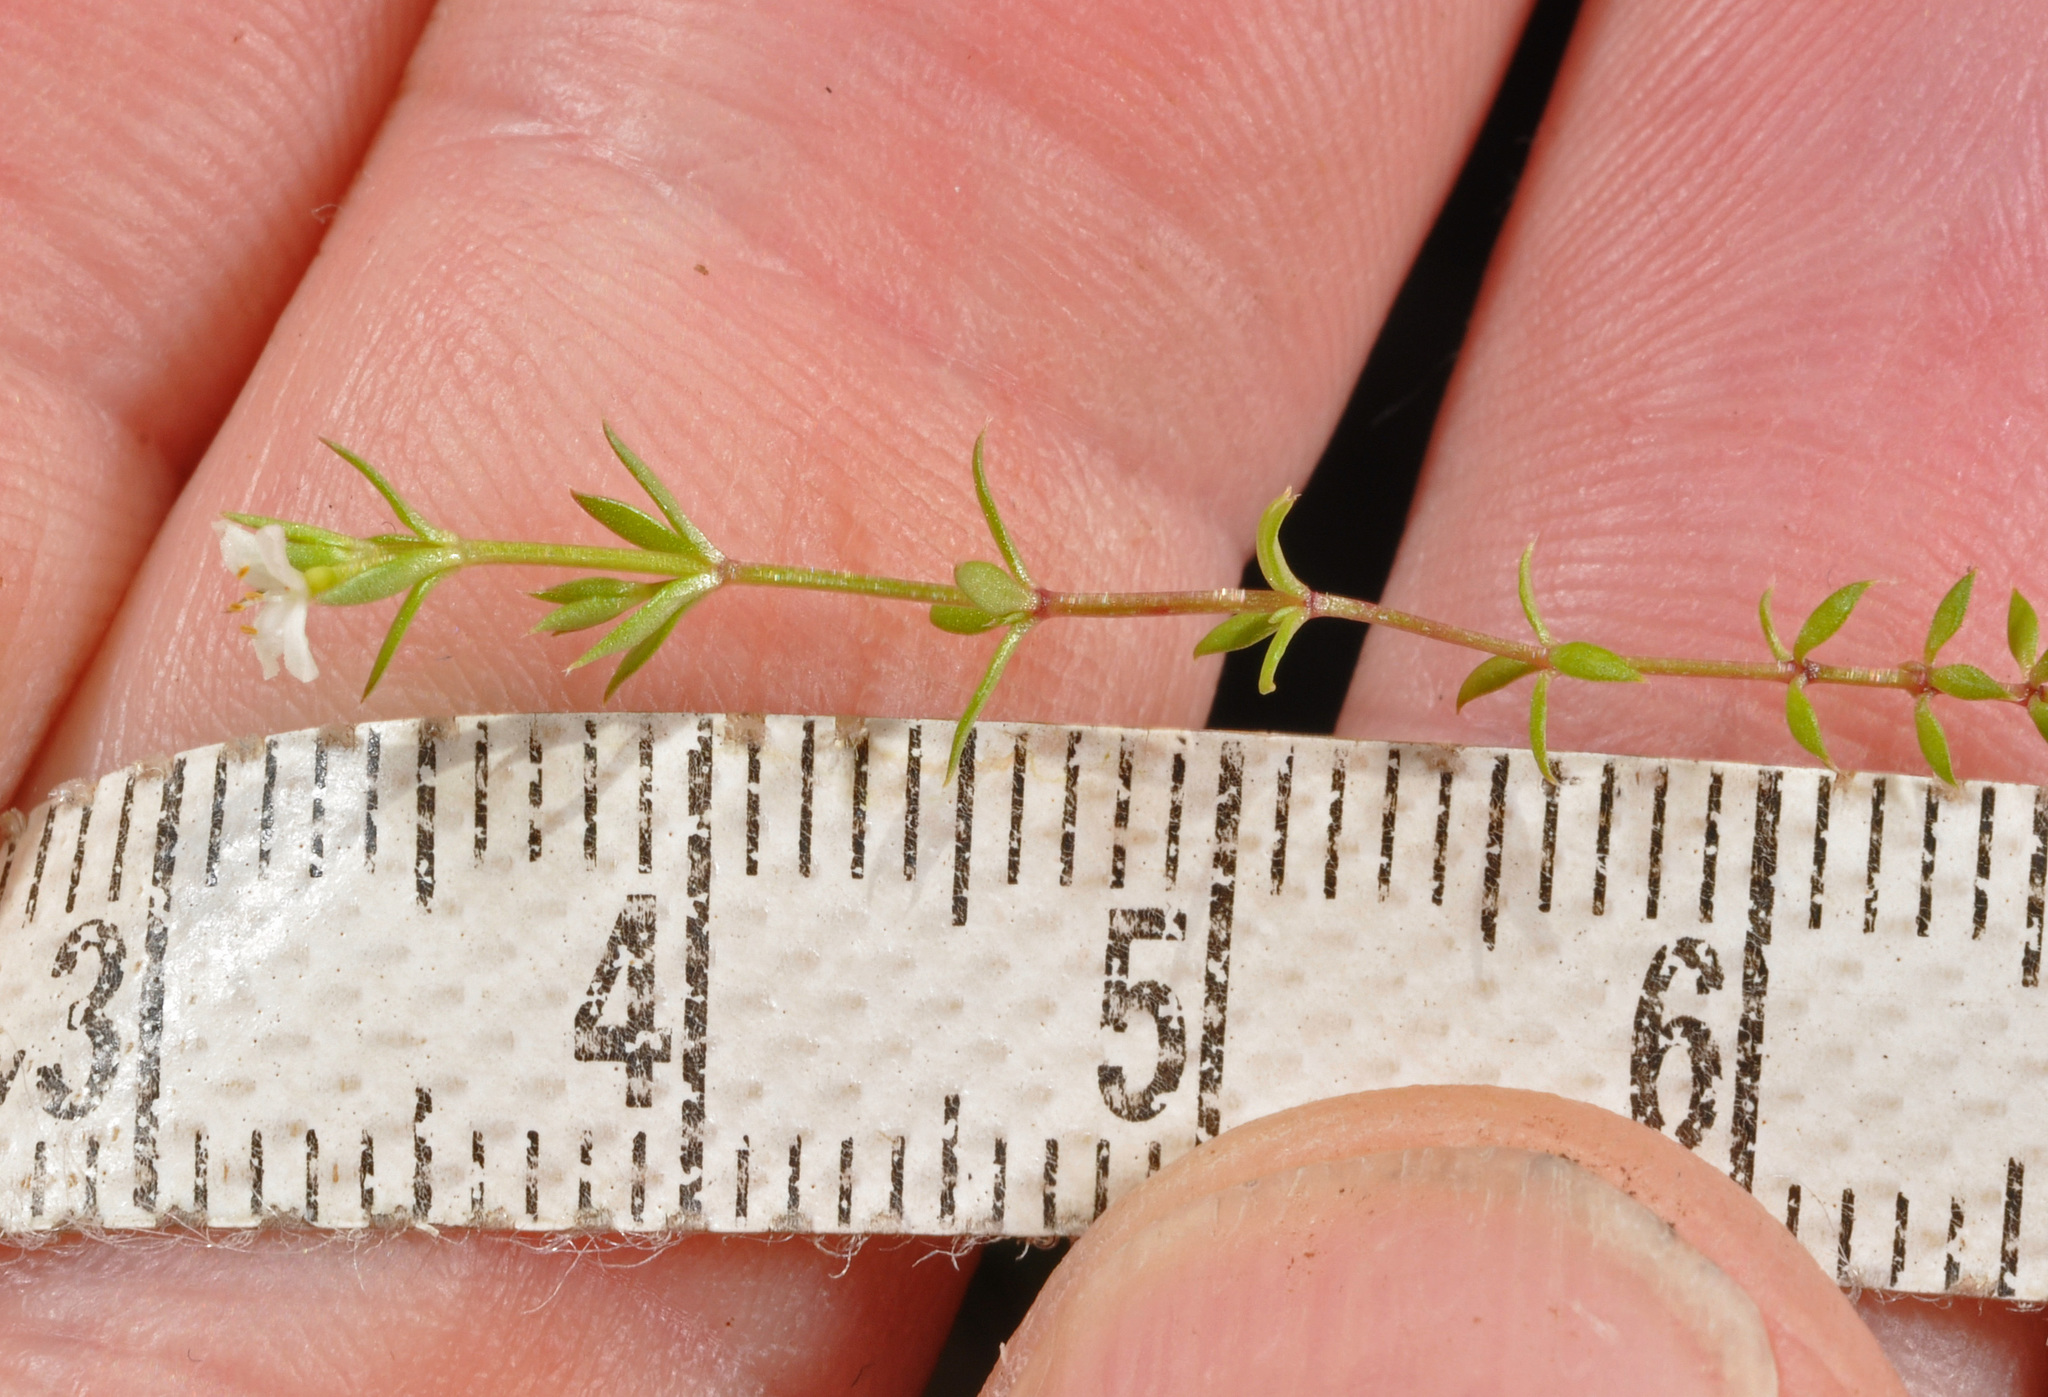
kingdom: Plantae
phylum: Tracheophyta
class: Magnoliopsida
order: Gentianales
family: Rubiaceae
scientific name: Rubiaceae
